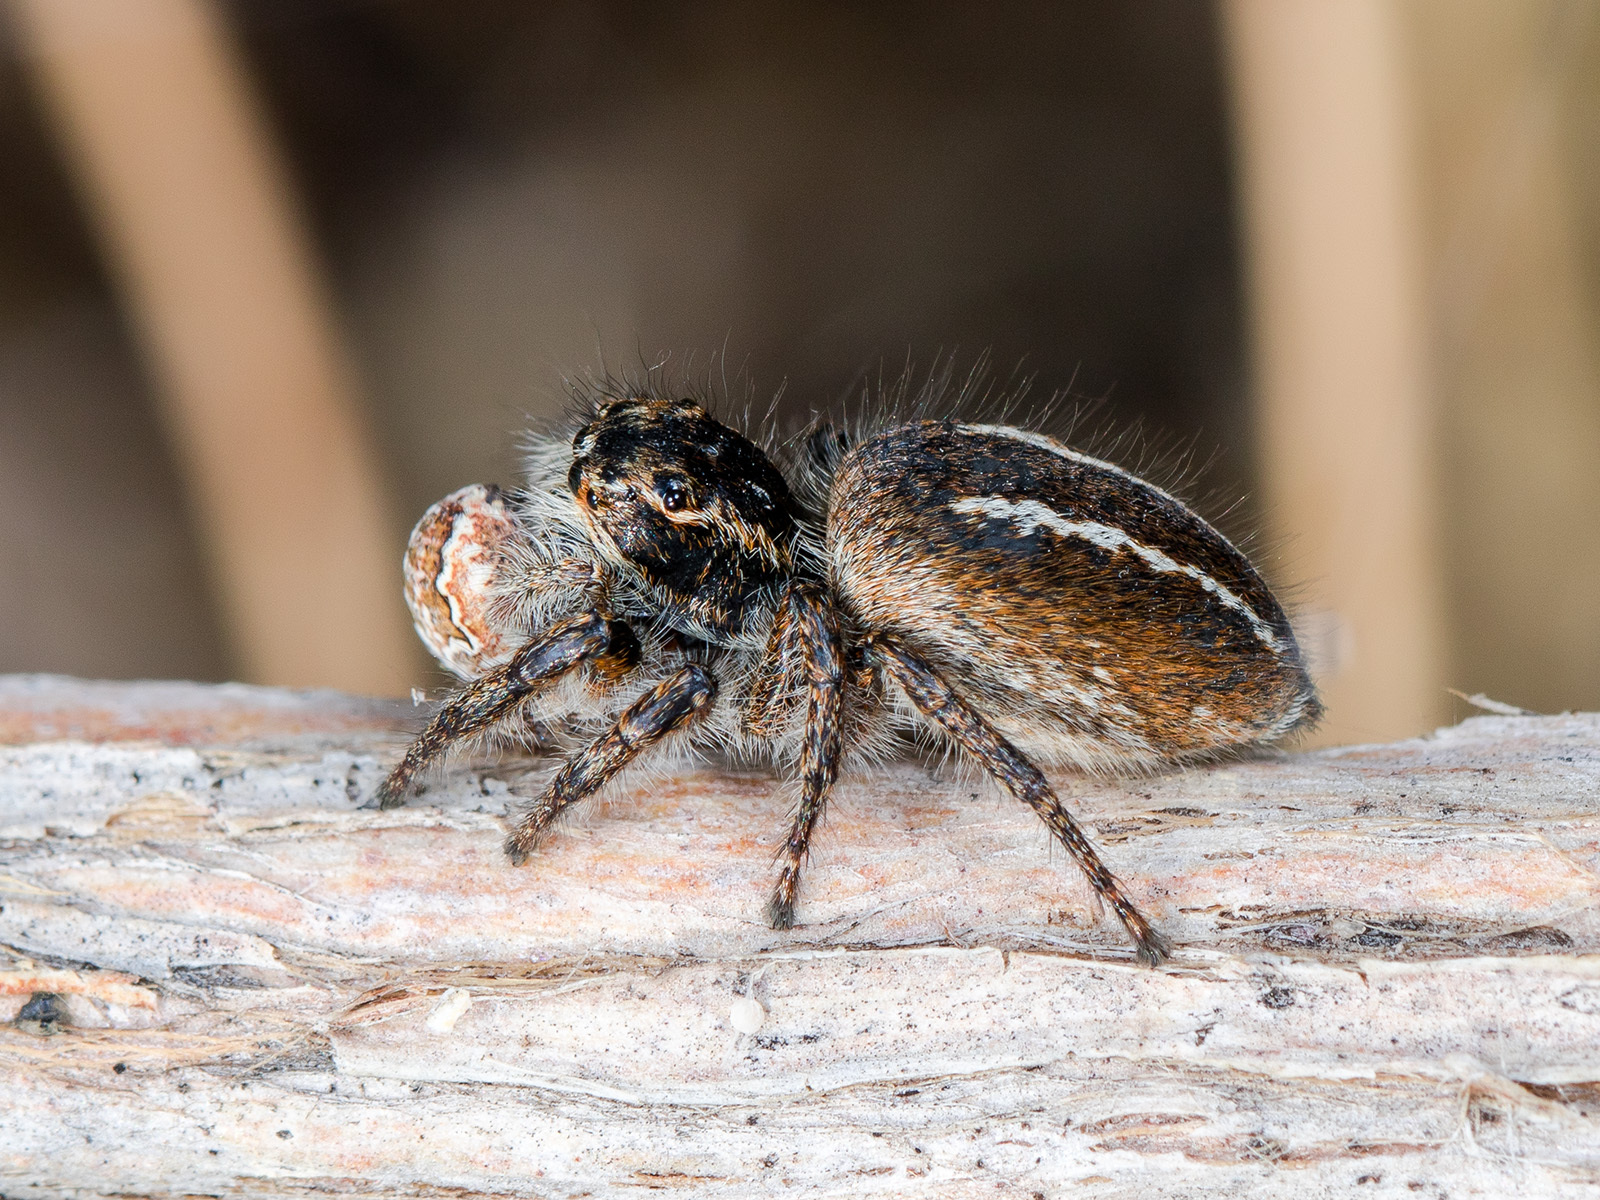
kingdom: Animalia
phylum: Arthropoda
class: Arachnida
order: Araneae
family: Salticidae
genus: Philaeus
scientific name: Philaeus chrysops
